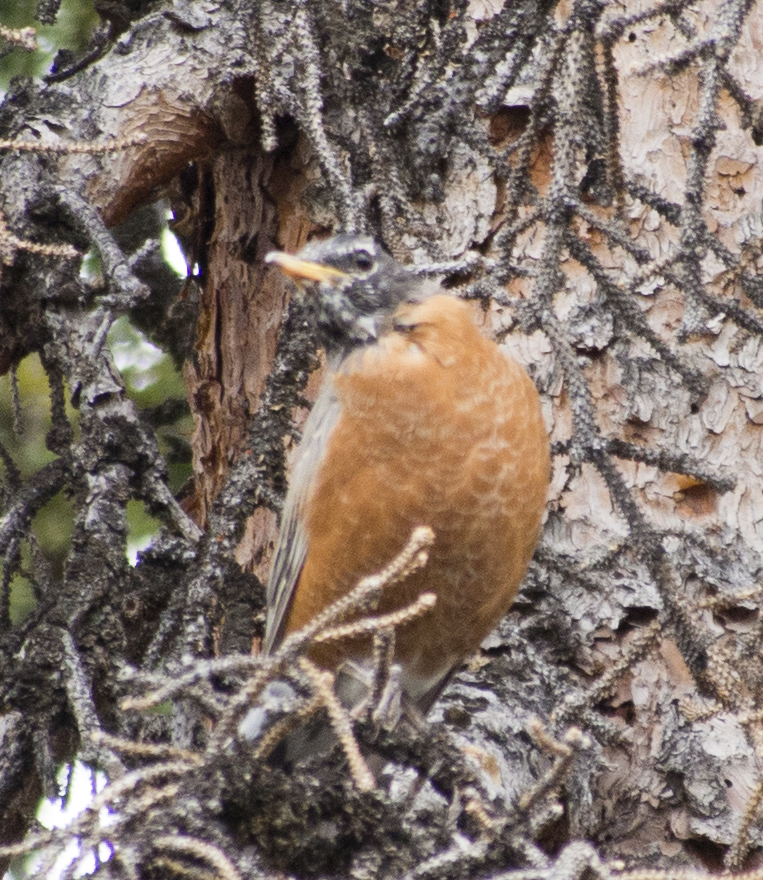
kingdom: Animalia
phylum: Chordata
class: Aves
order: Passeriformes
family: Turdidae
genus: Turdus
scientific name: Turdus migratorius
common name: American robin
